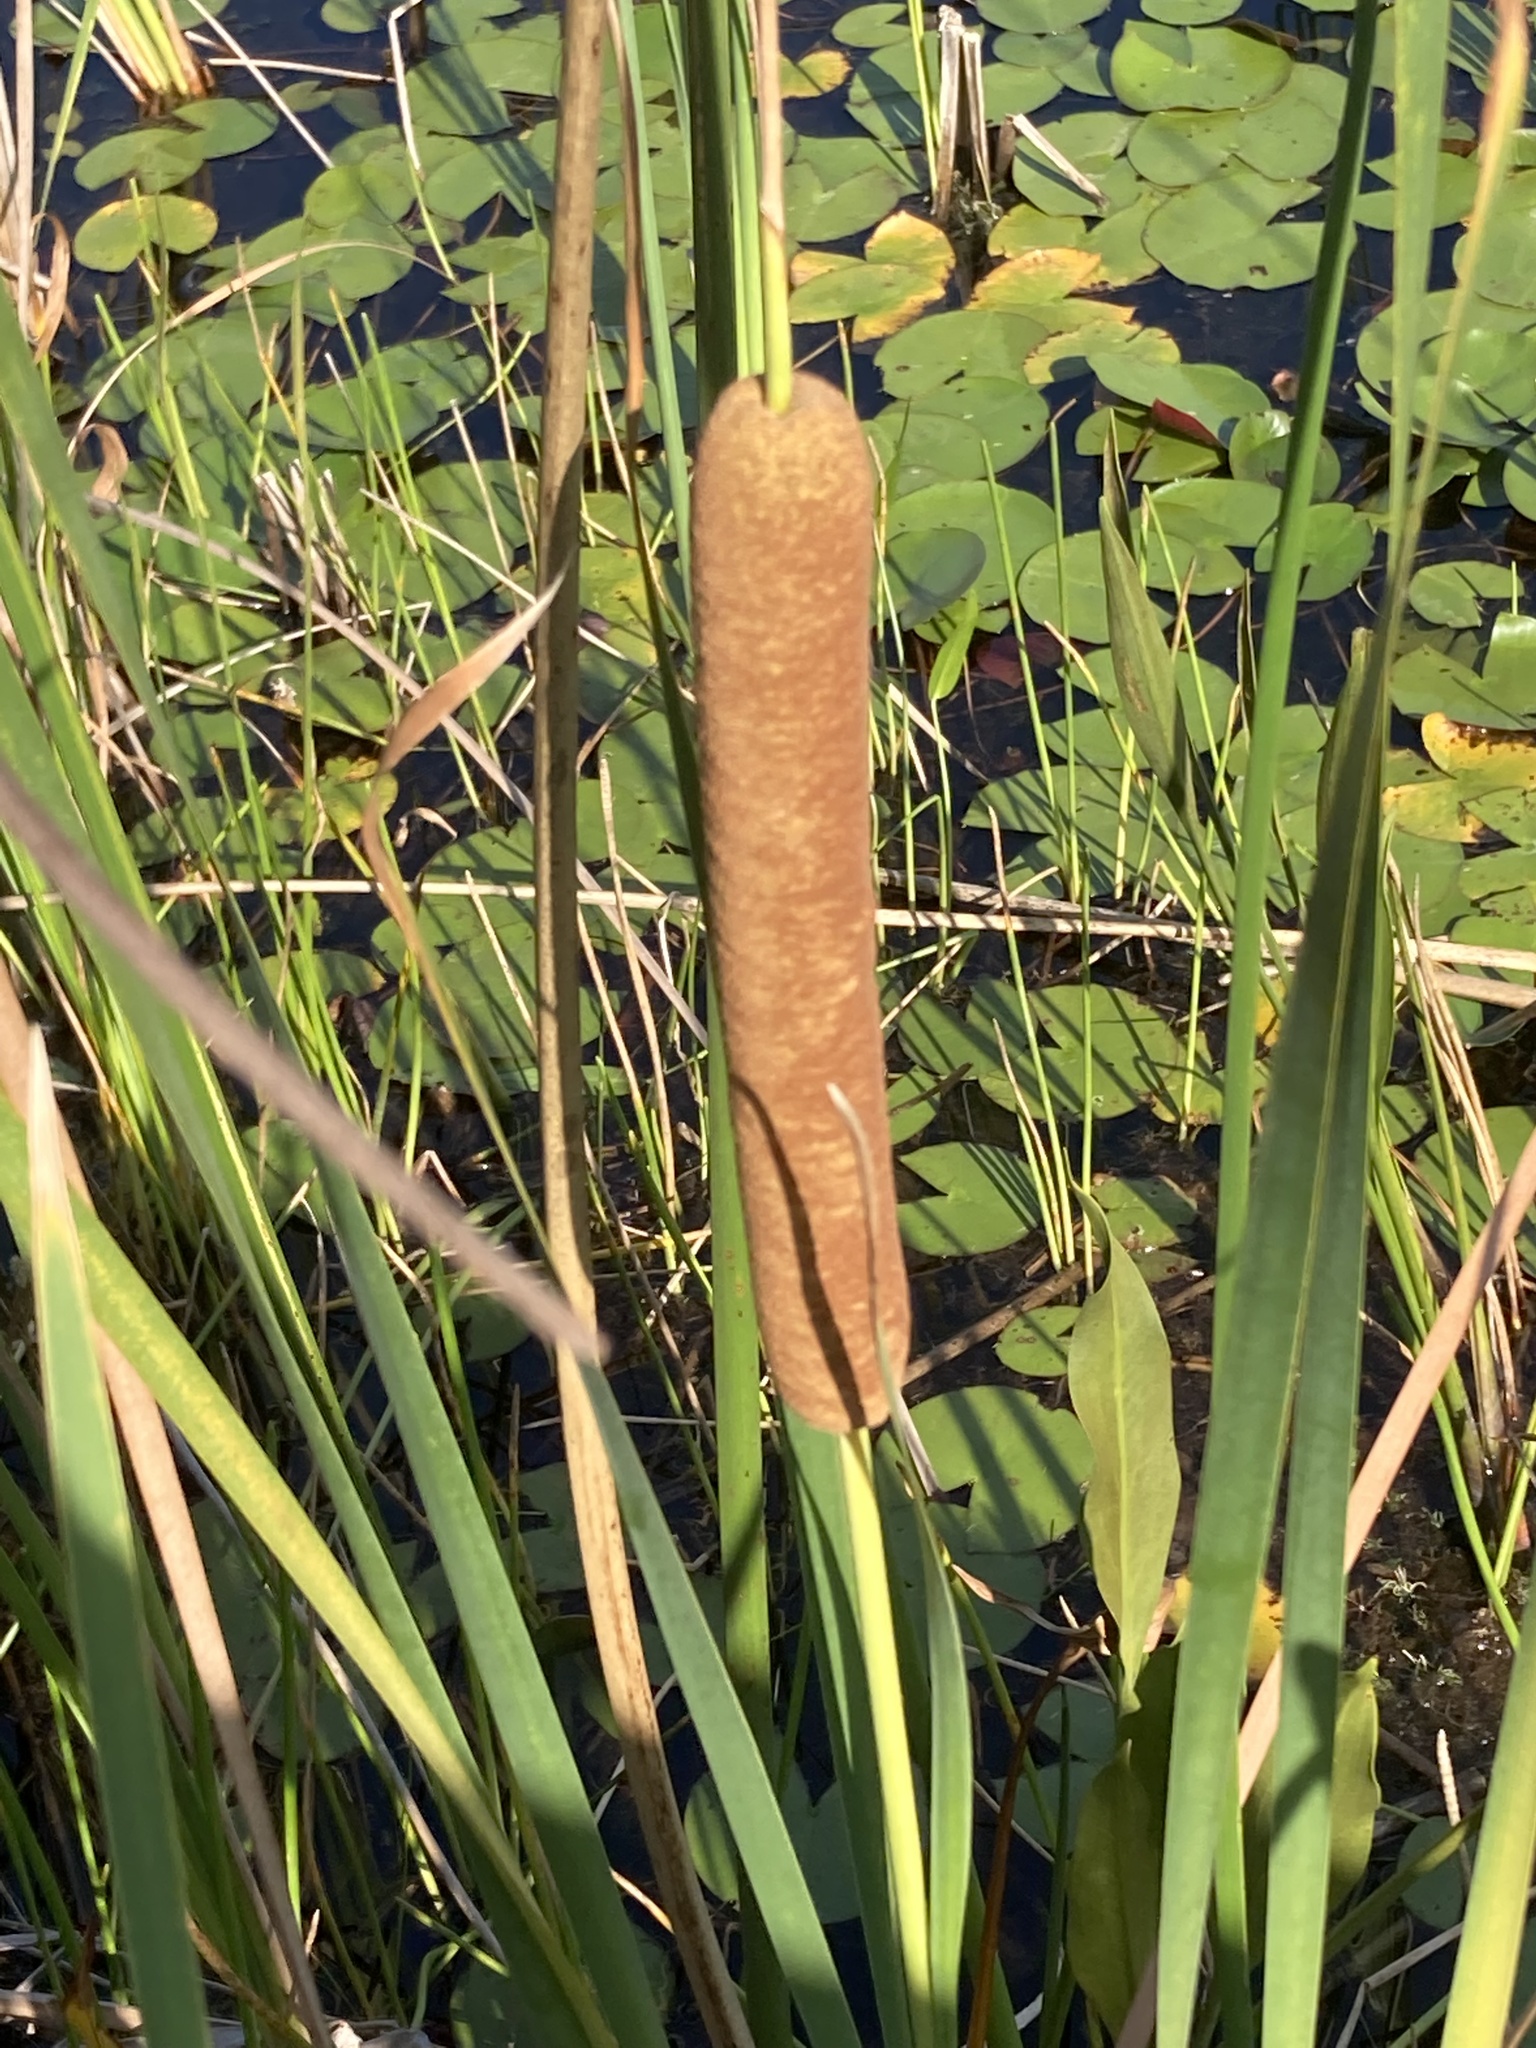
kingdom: Plantae
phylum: Tracheophyta
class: Liliopsida
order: Poales
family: Typhaceae
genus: Typha
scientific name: Typha domingensis
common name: Southern cattail
